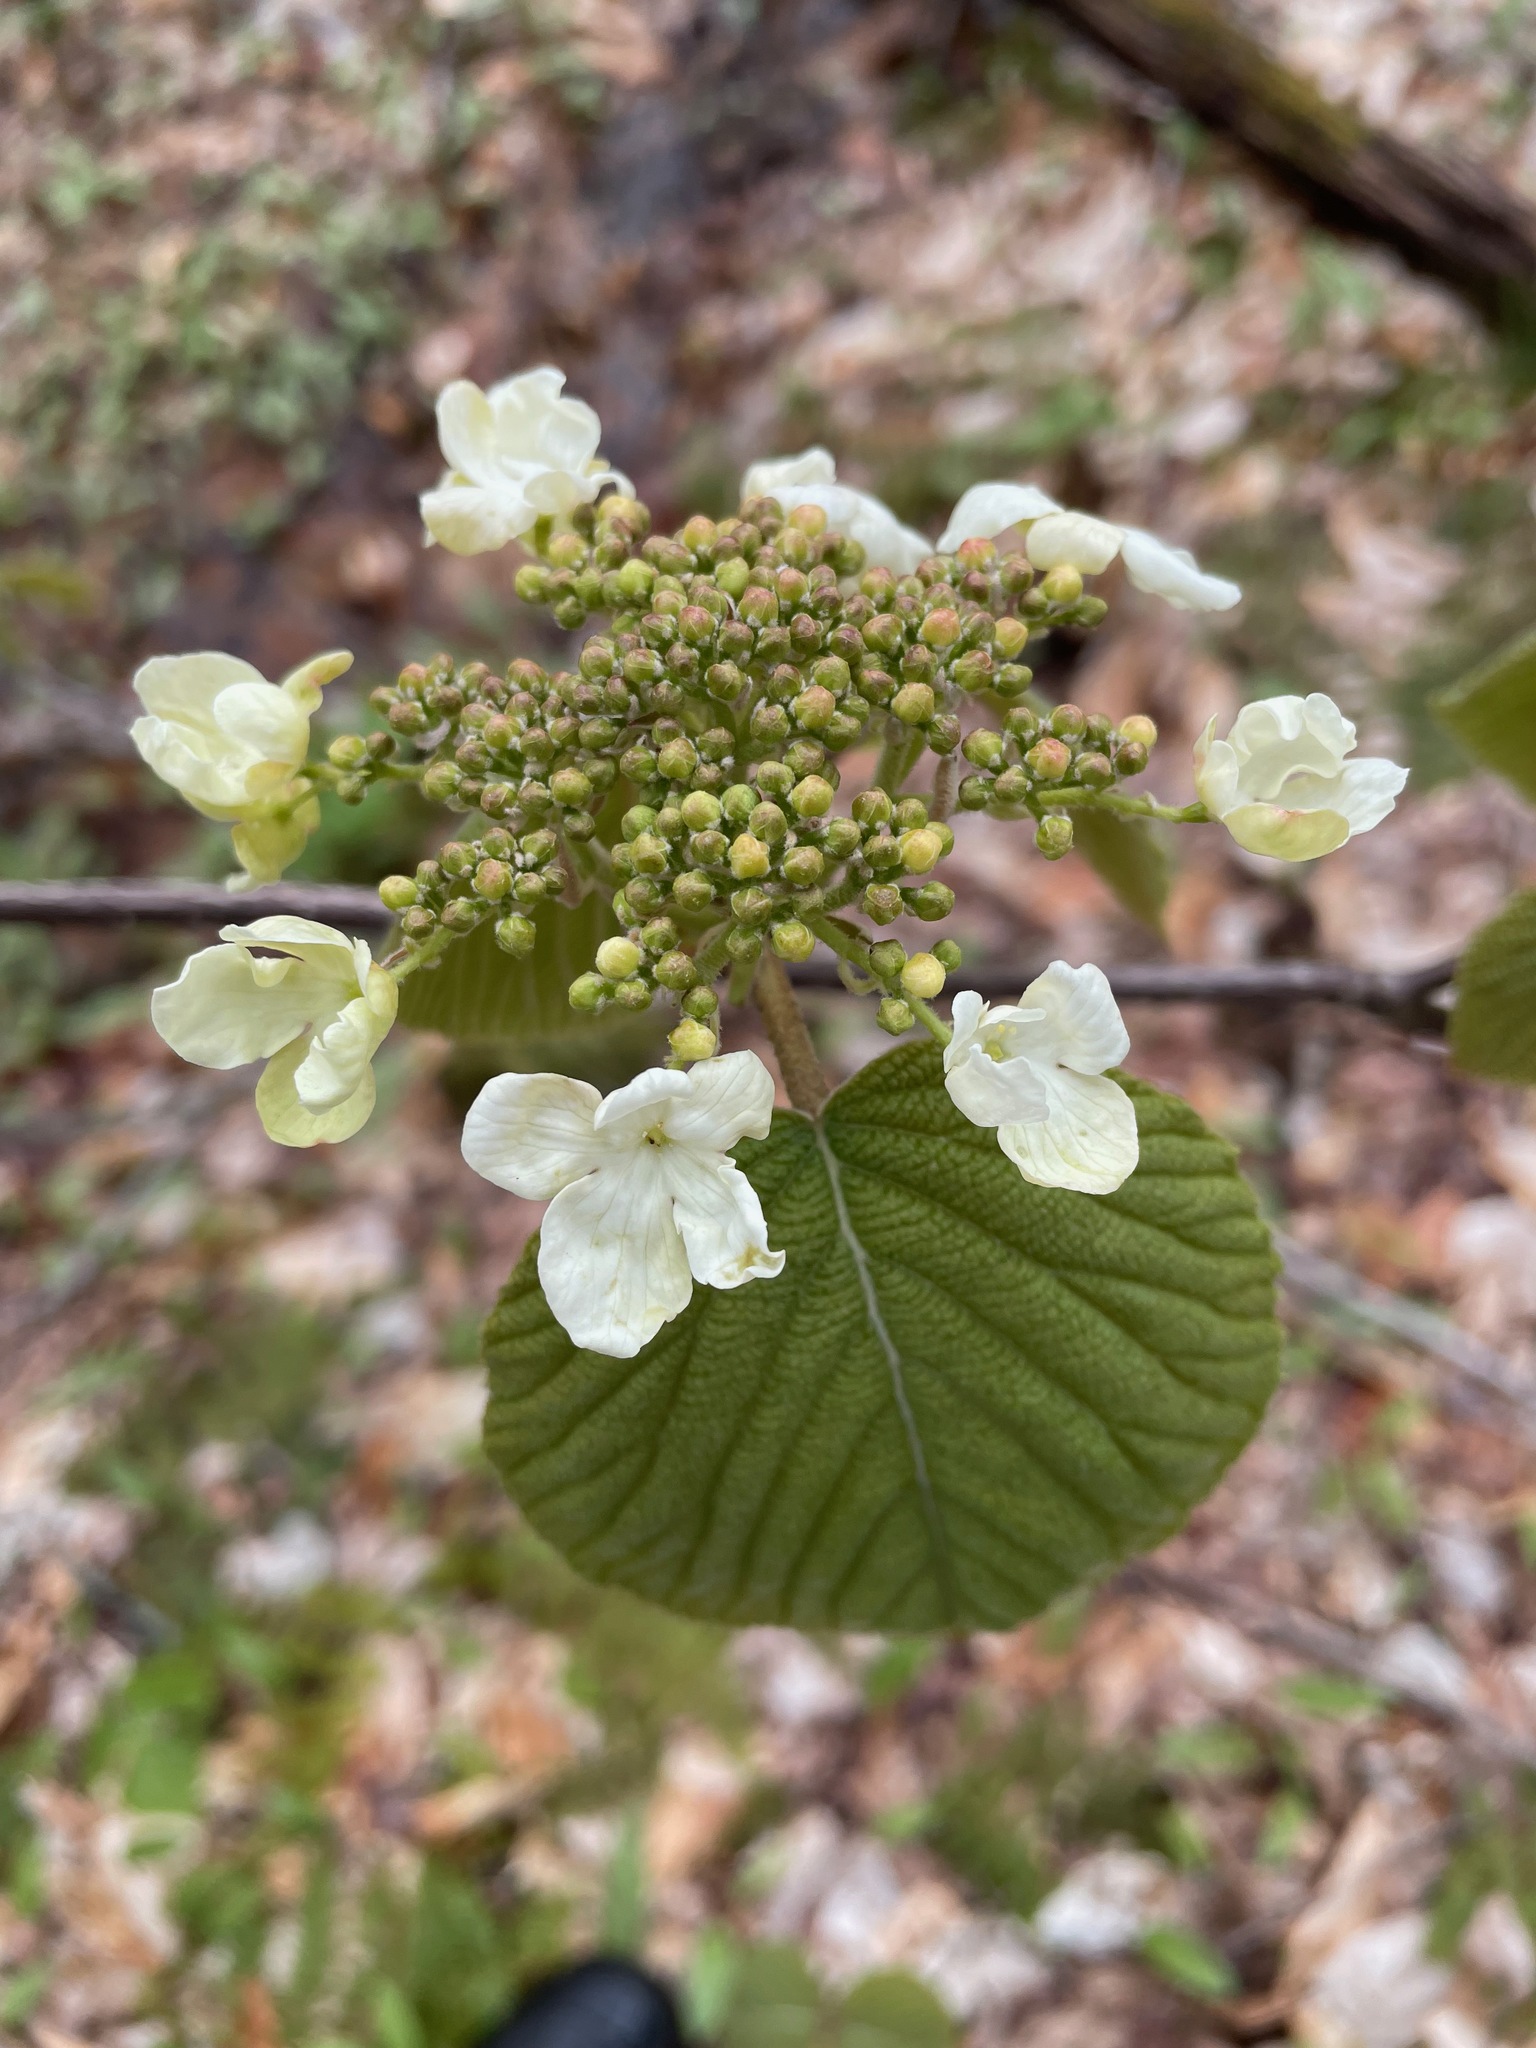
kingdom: Plantae
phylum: Tracheophyta
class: Magnoliopsida
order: Dipsacales
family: Viburnaceae
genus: Viburnum
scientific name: Viburnum lantanoides
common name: Hobblebush
